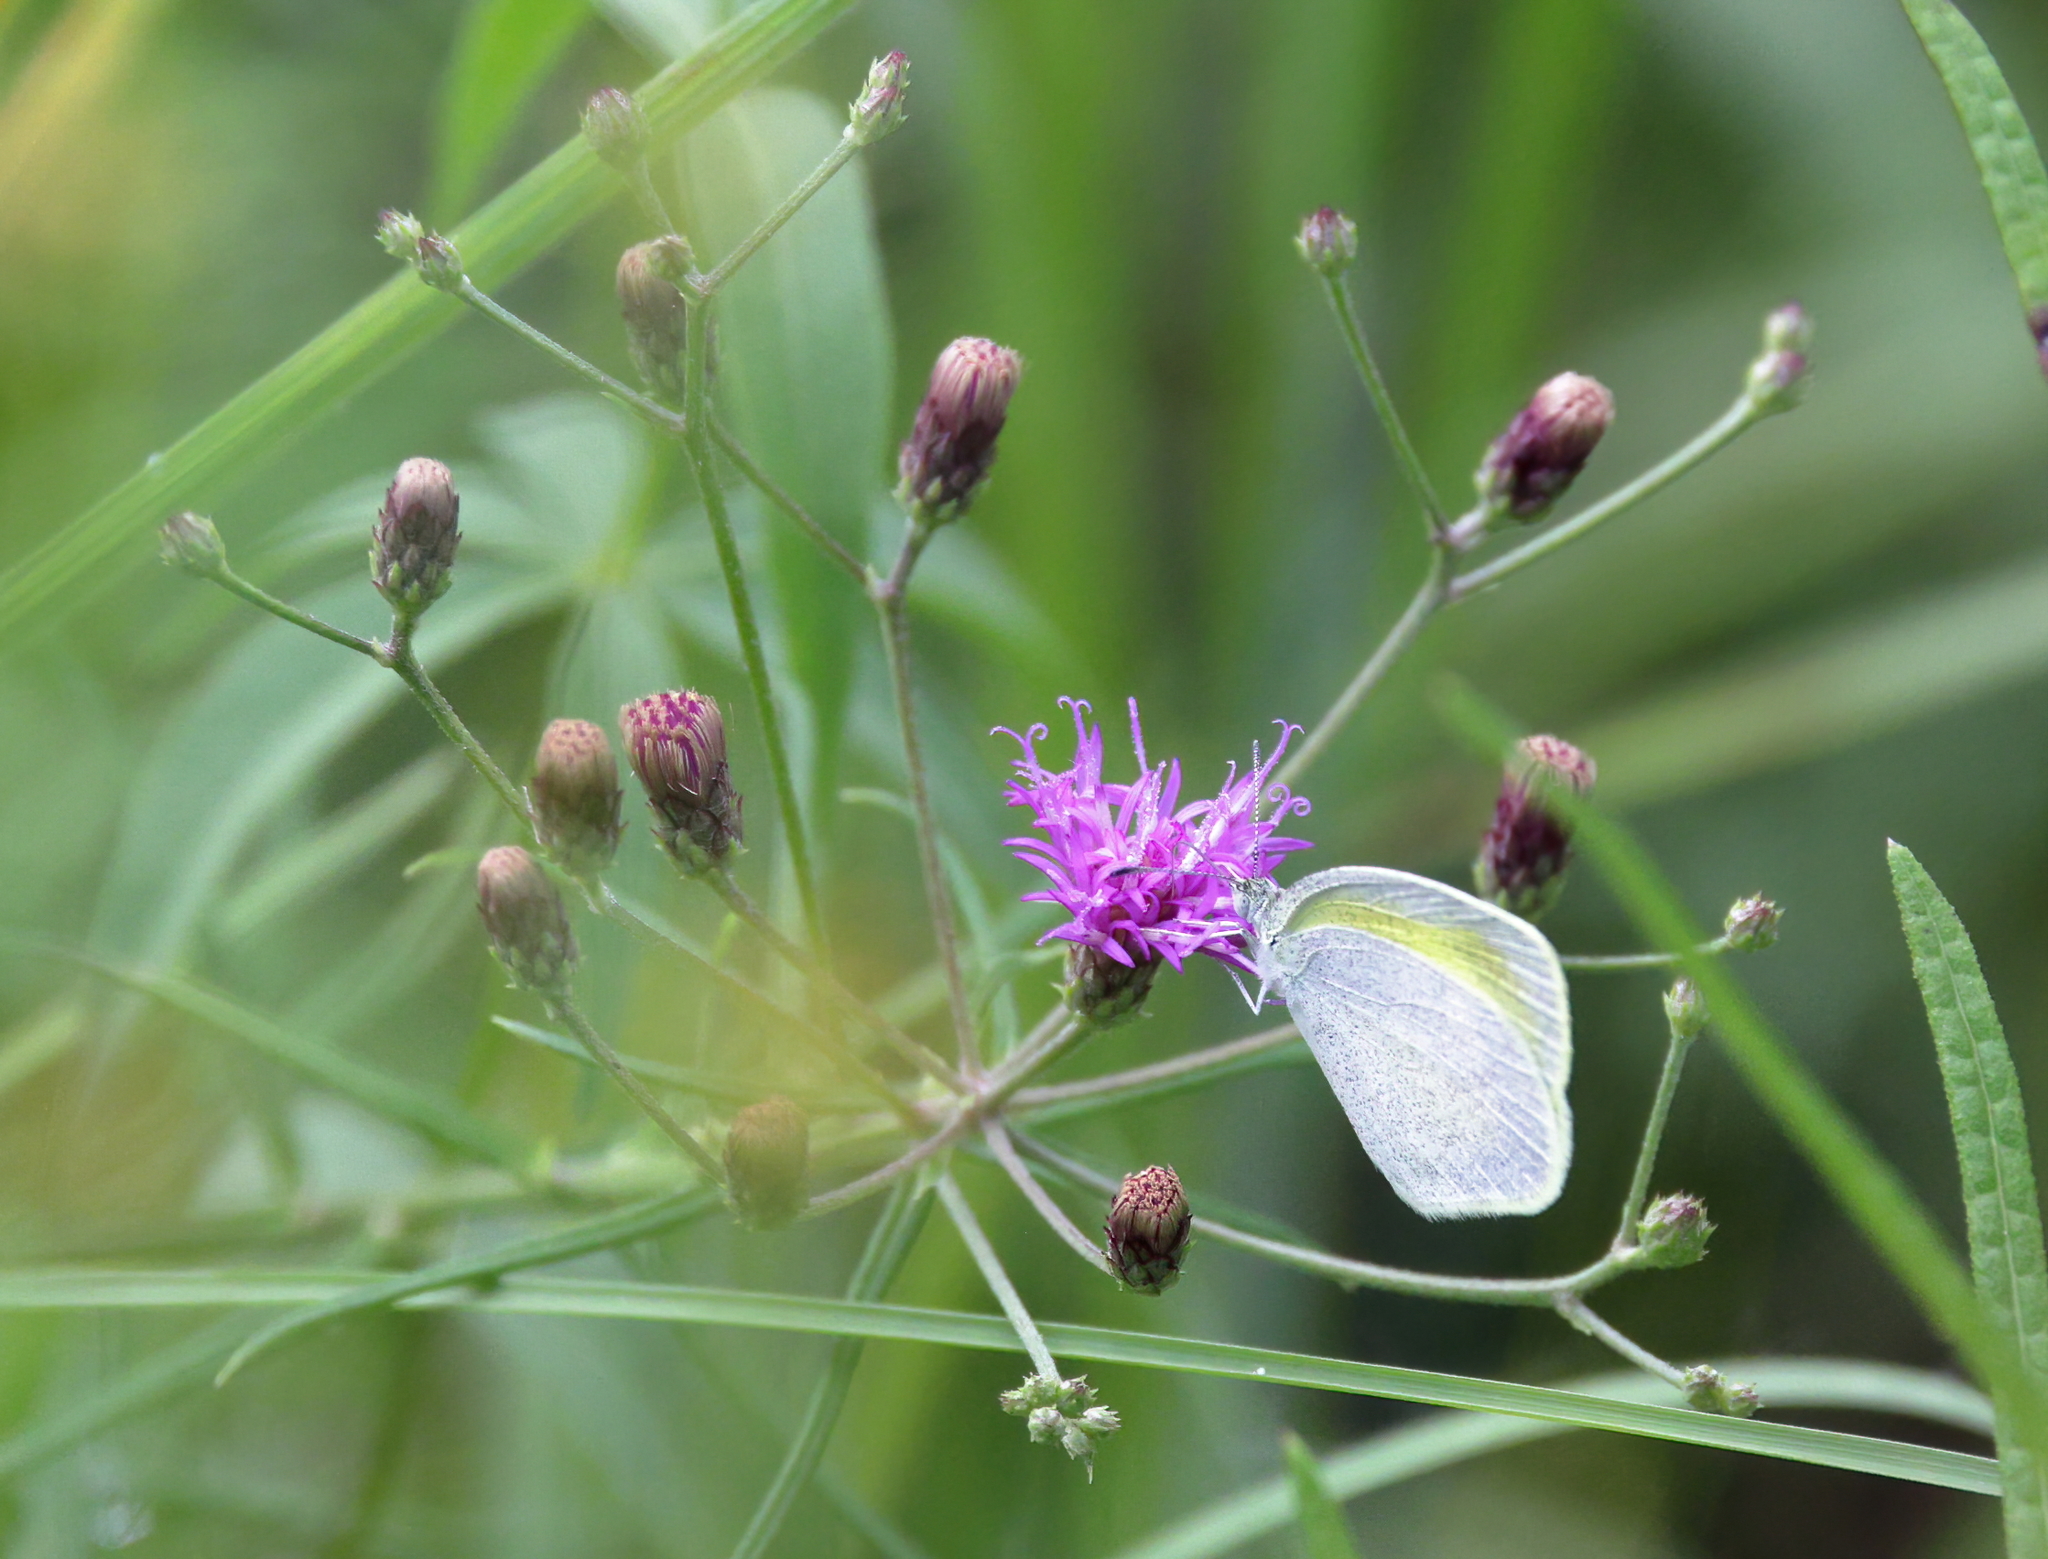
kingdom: Animalia
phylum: Arthropoda
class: Insecta
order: Lepidoptera
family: Pieridae
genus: Eurema
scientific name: Eurema daira
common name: Barred sulphur
